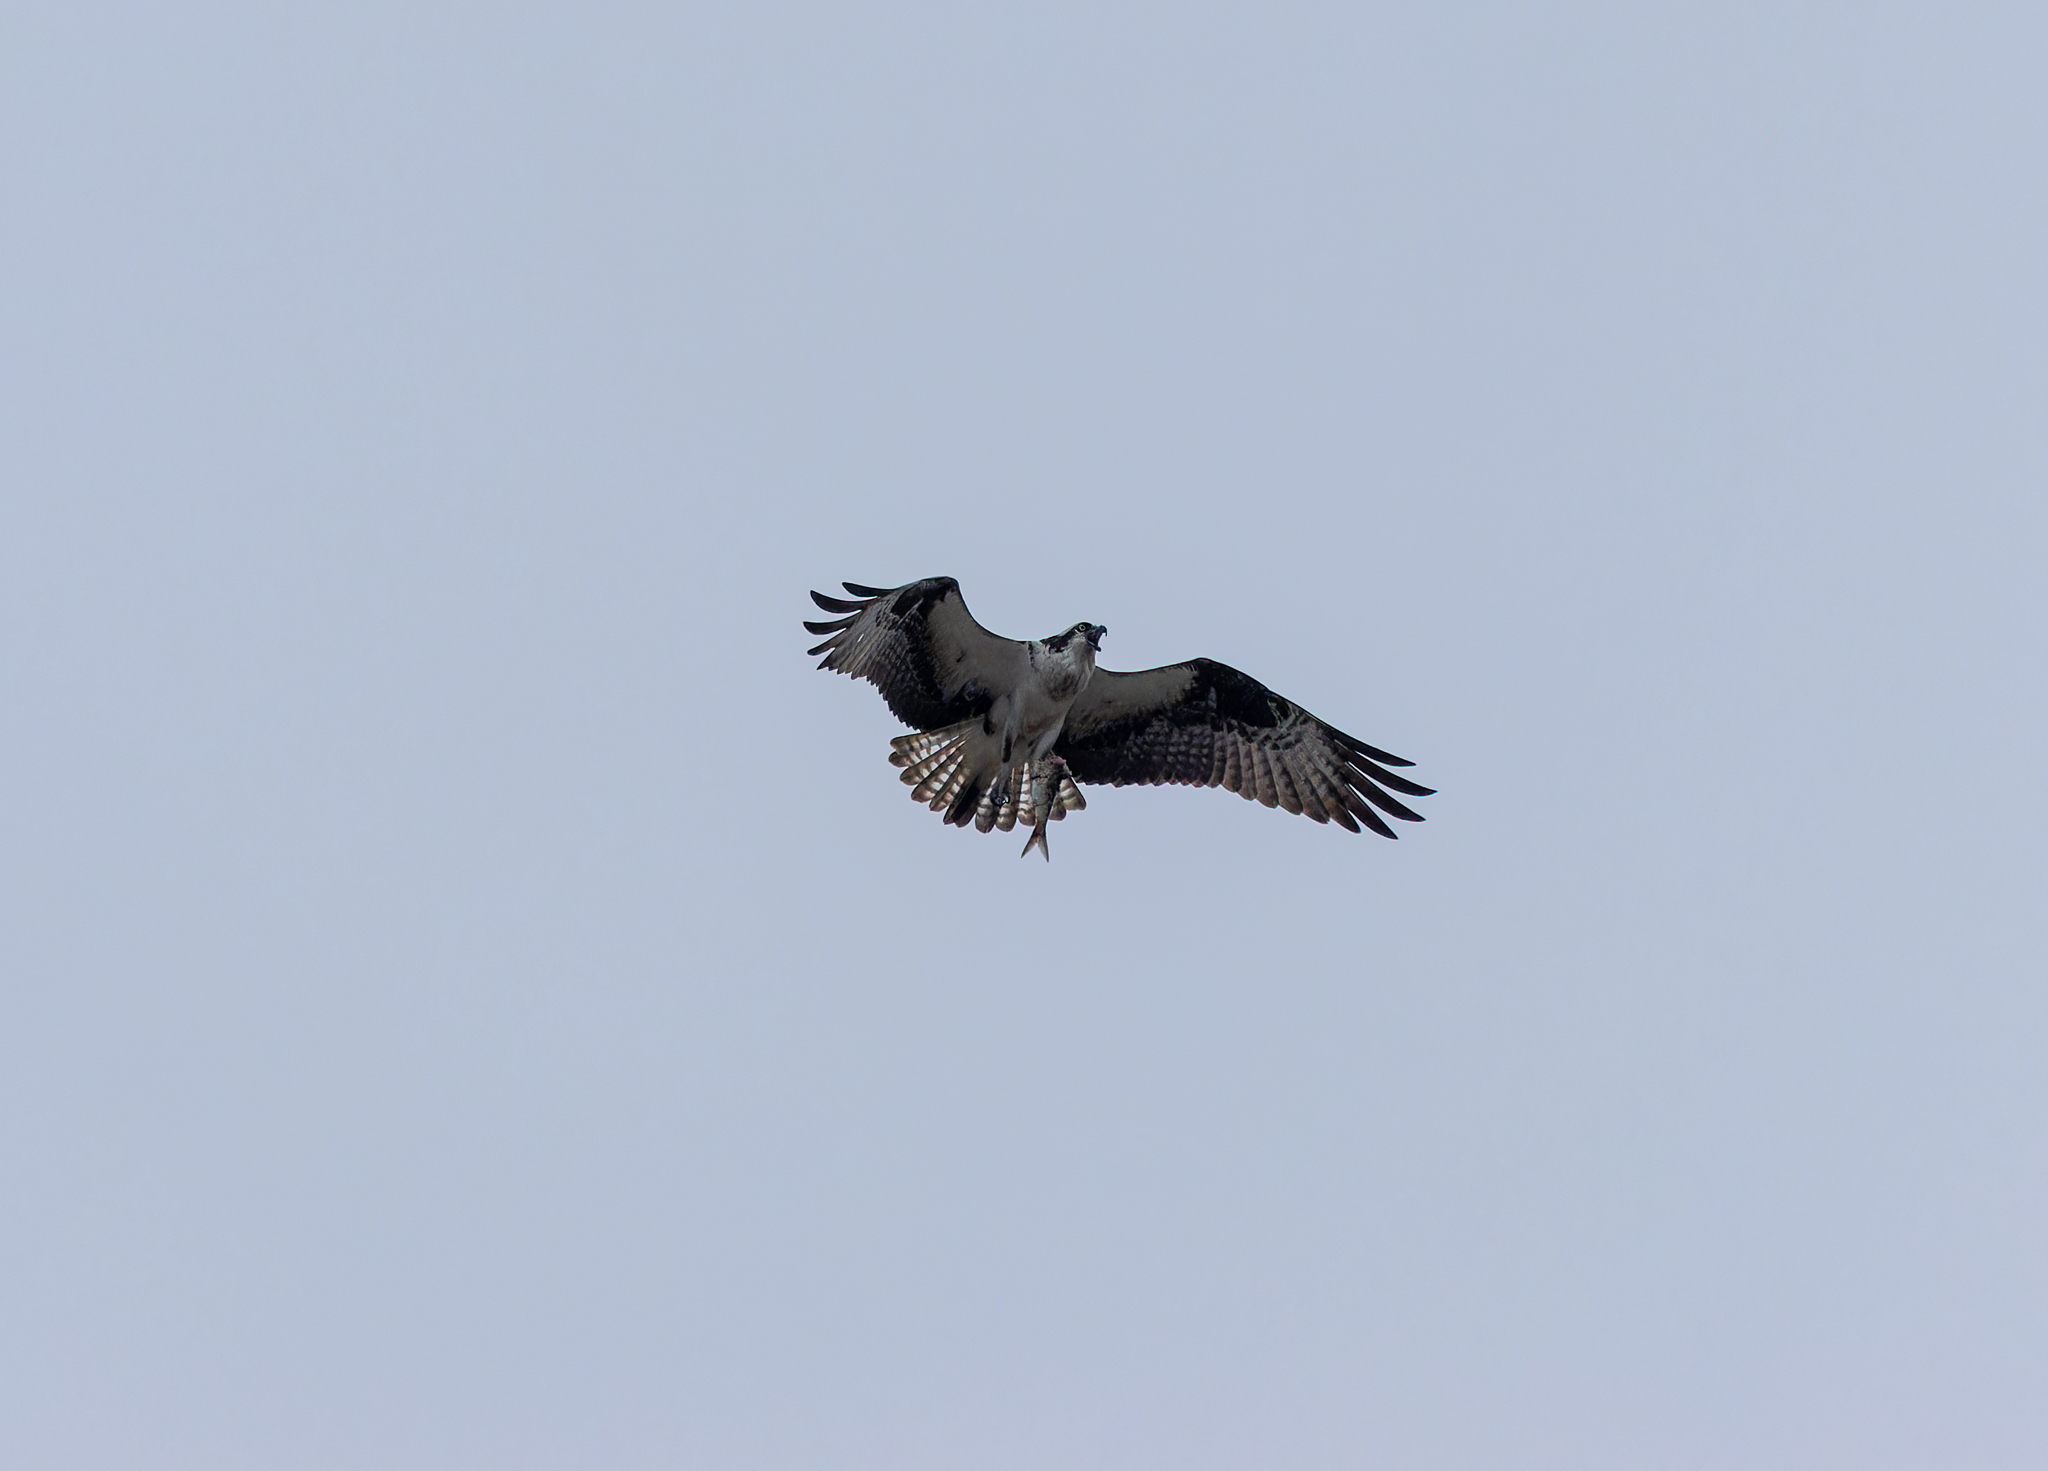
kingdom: Animalia
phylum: Chordata
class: Aves
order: Accipitriformes
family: Pandionidae
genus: Pandion
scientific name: Pandion haliaetus
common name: Osprey
